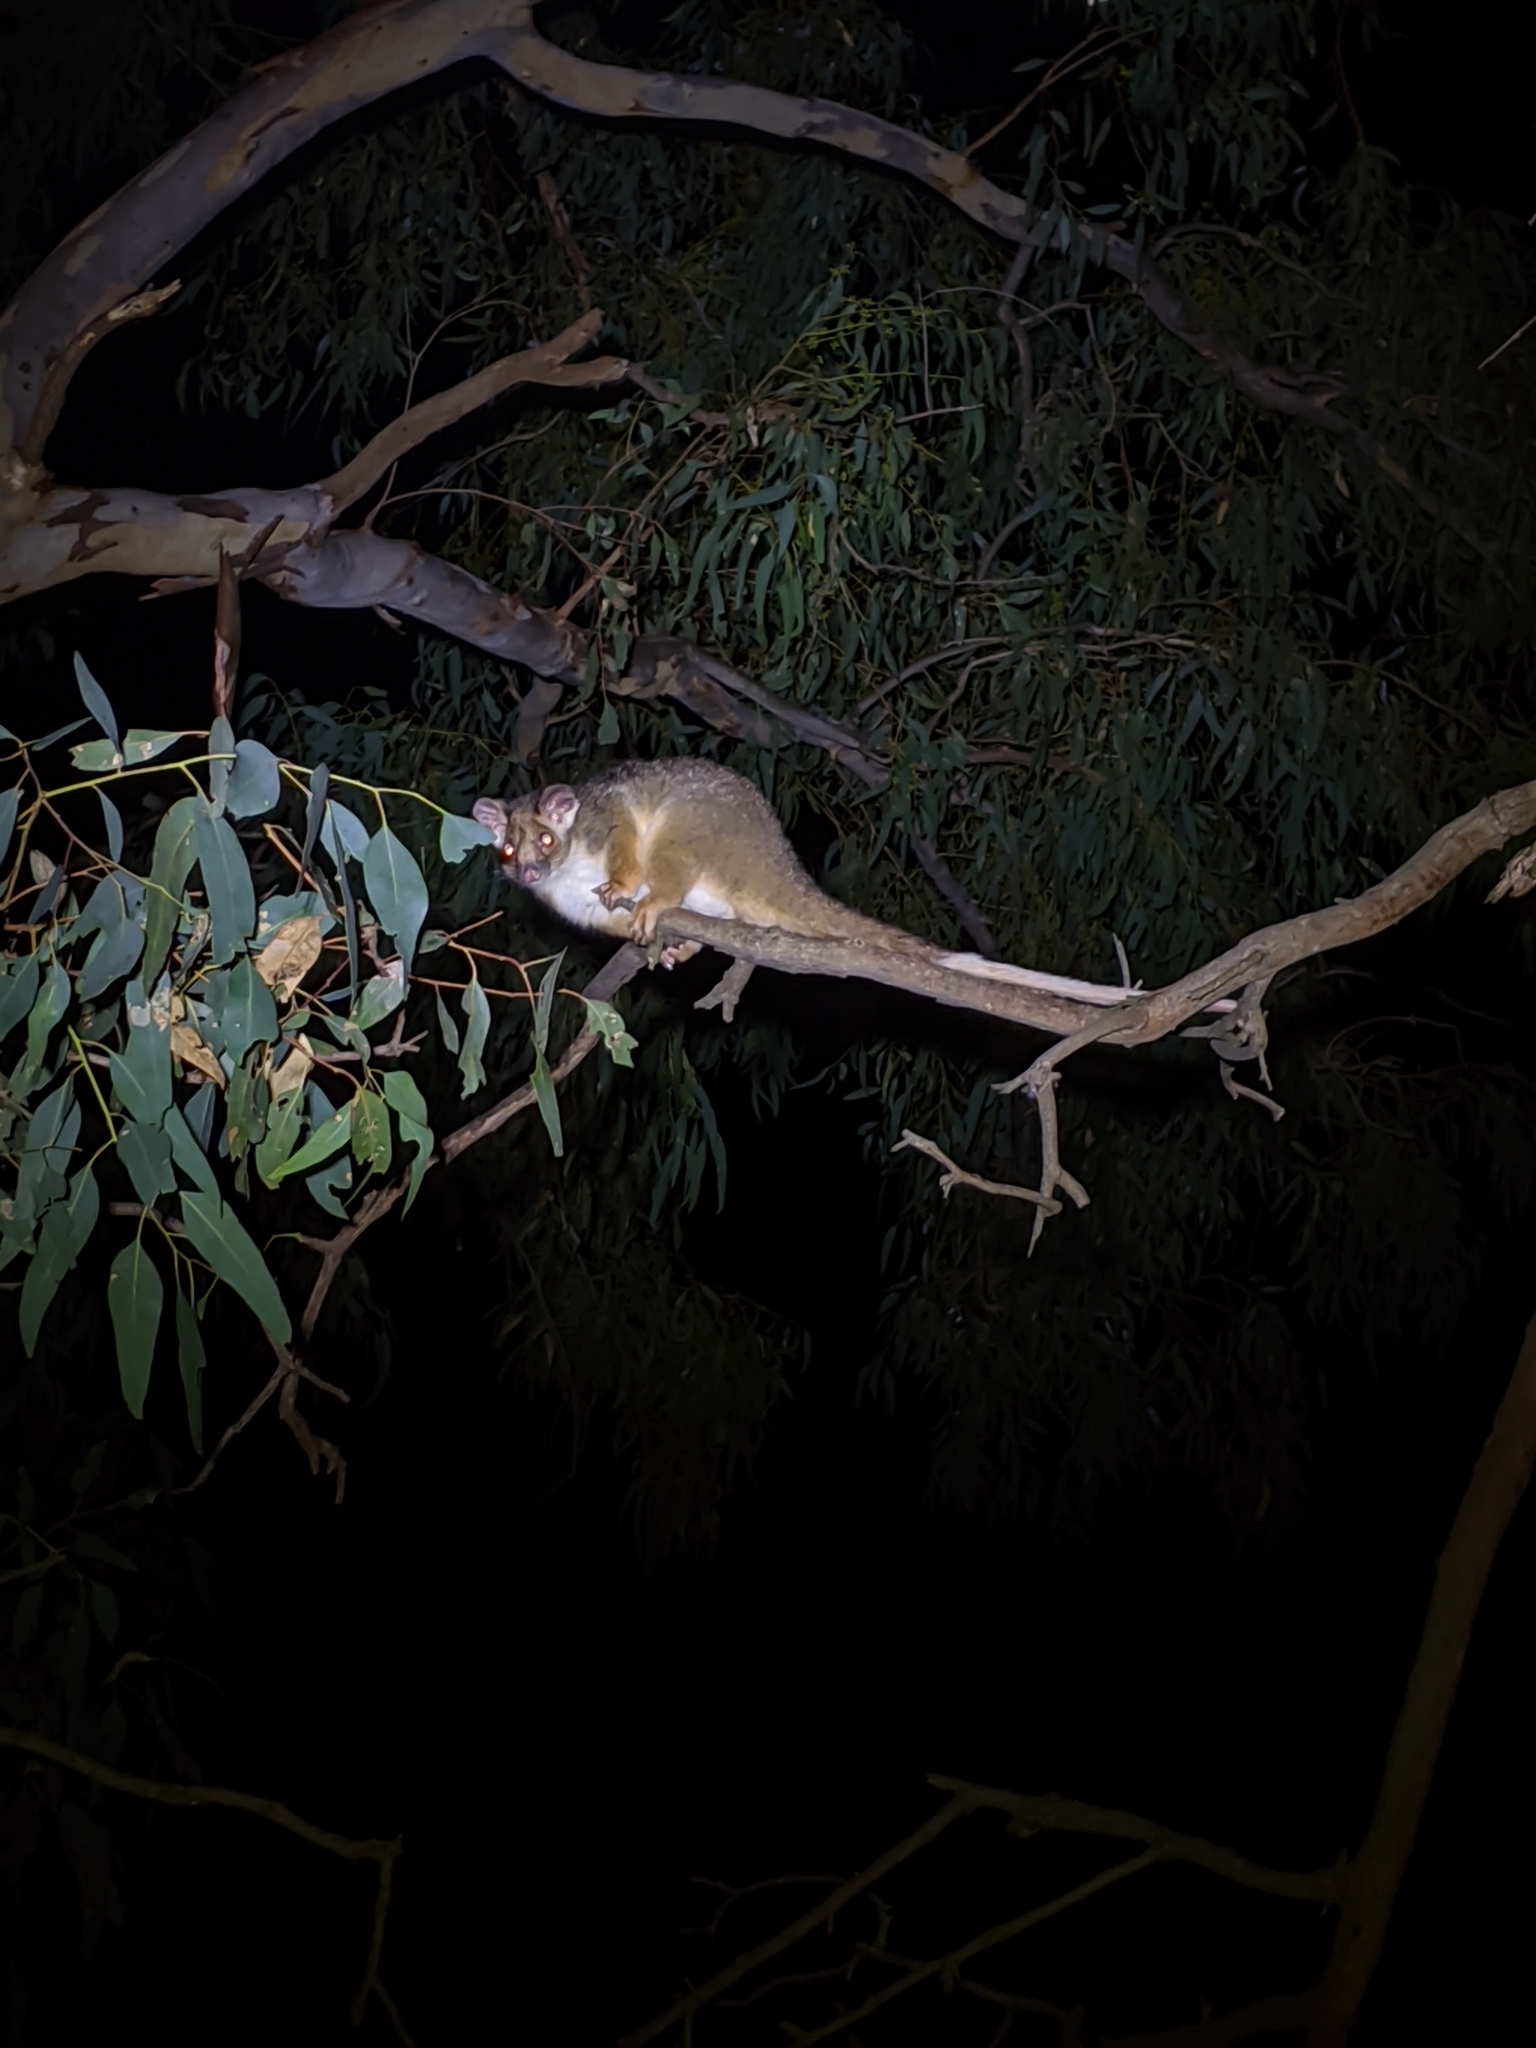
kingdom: Animalia
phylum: Chordata
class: Mammalia
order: Diprotodontia
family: Pseudocheiridae
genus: Pseudocheirus
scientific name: Pseudocheirus peregrinus
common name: Common ringtail possum
